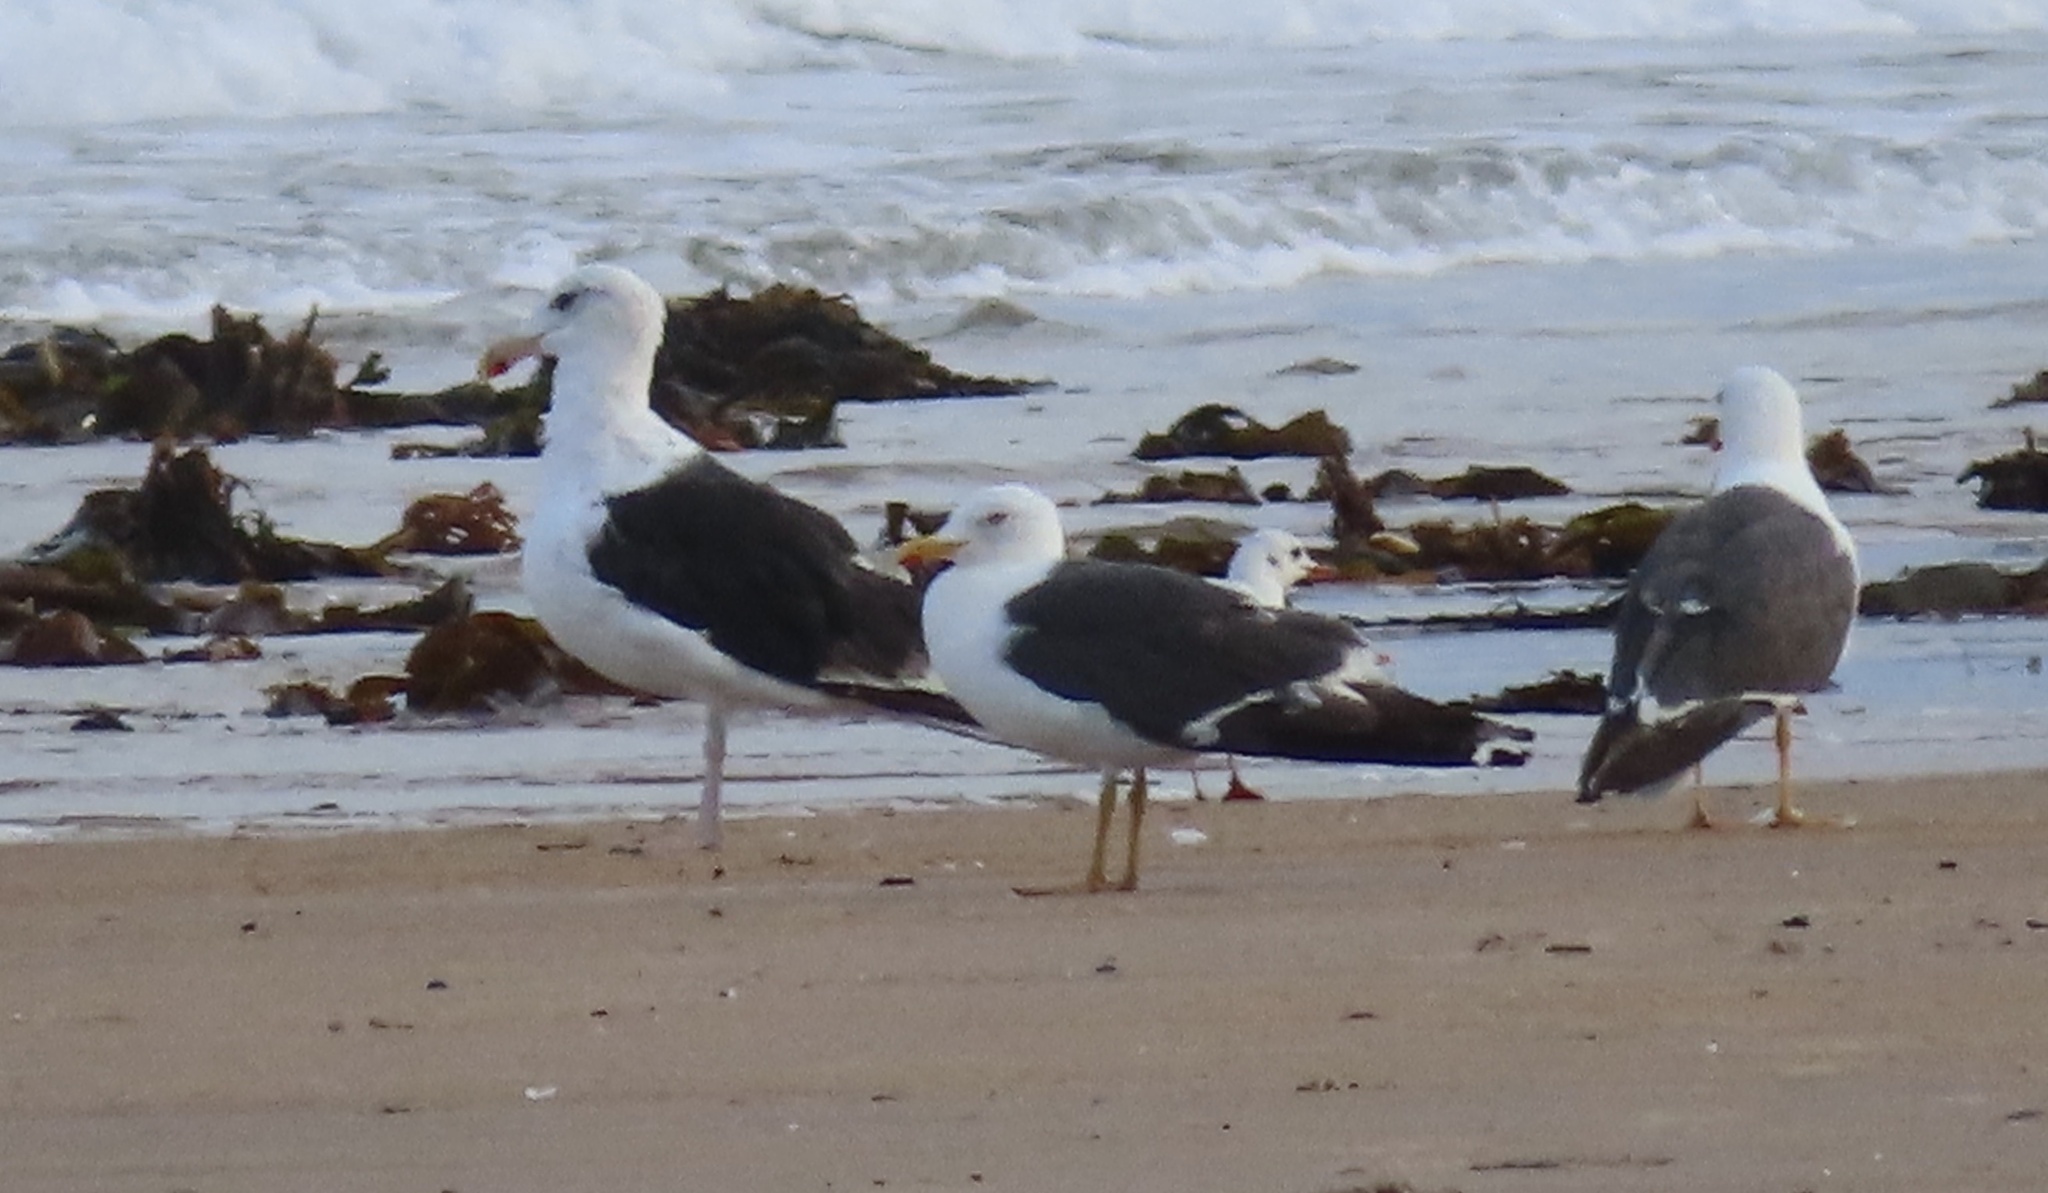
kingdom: Animalia
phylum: Chordata
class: Aves
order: Charadriiformes
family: Laridae
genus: Larus
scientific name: Larus marinus
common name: Great black-backed gull
